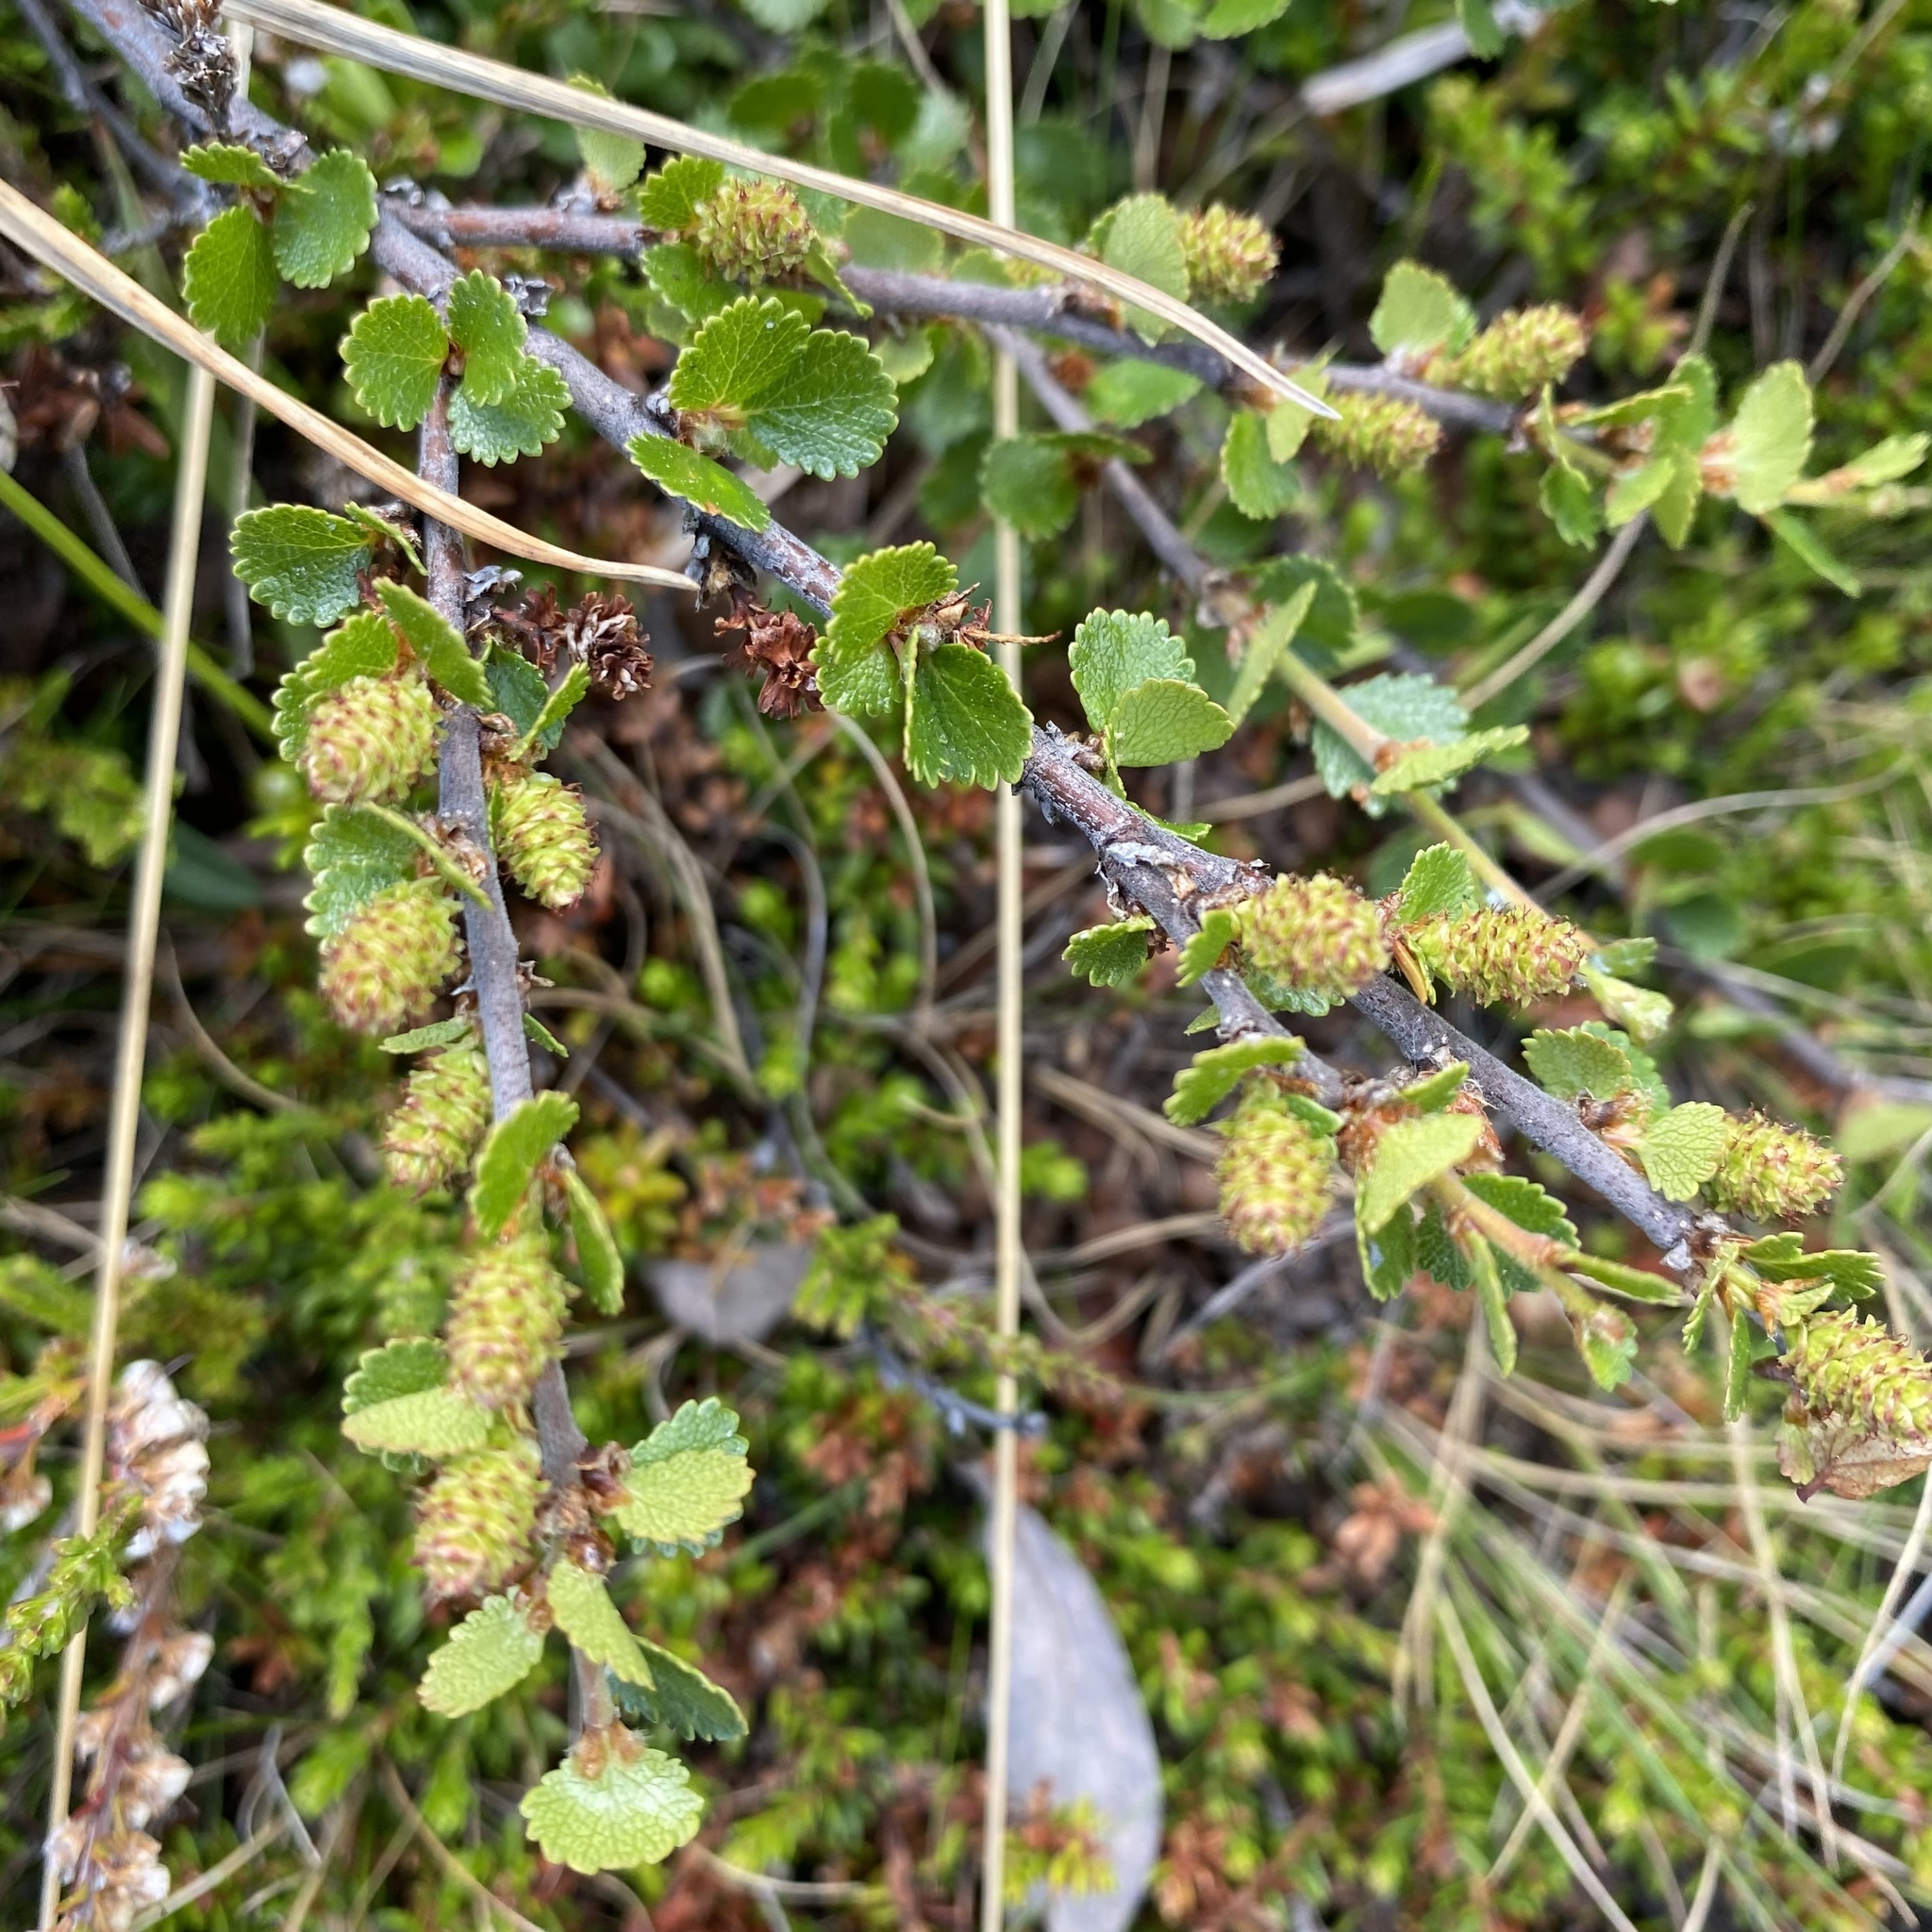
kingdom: Plantae
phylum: Tracheophyta
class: Magnoliopsida
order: Fagales
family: Betulaceae
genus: Betula
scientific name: Betula nana
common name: Arctic dwarf birch
